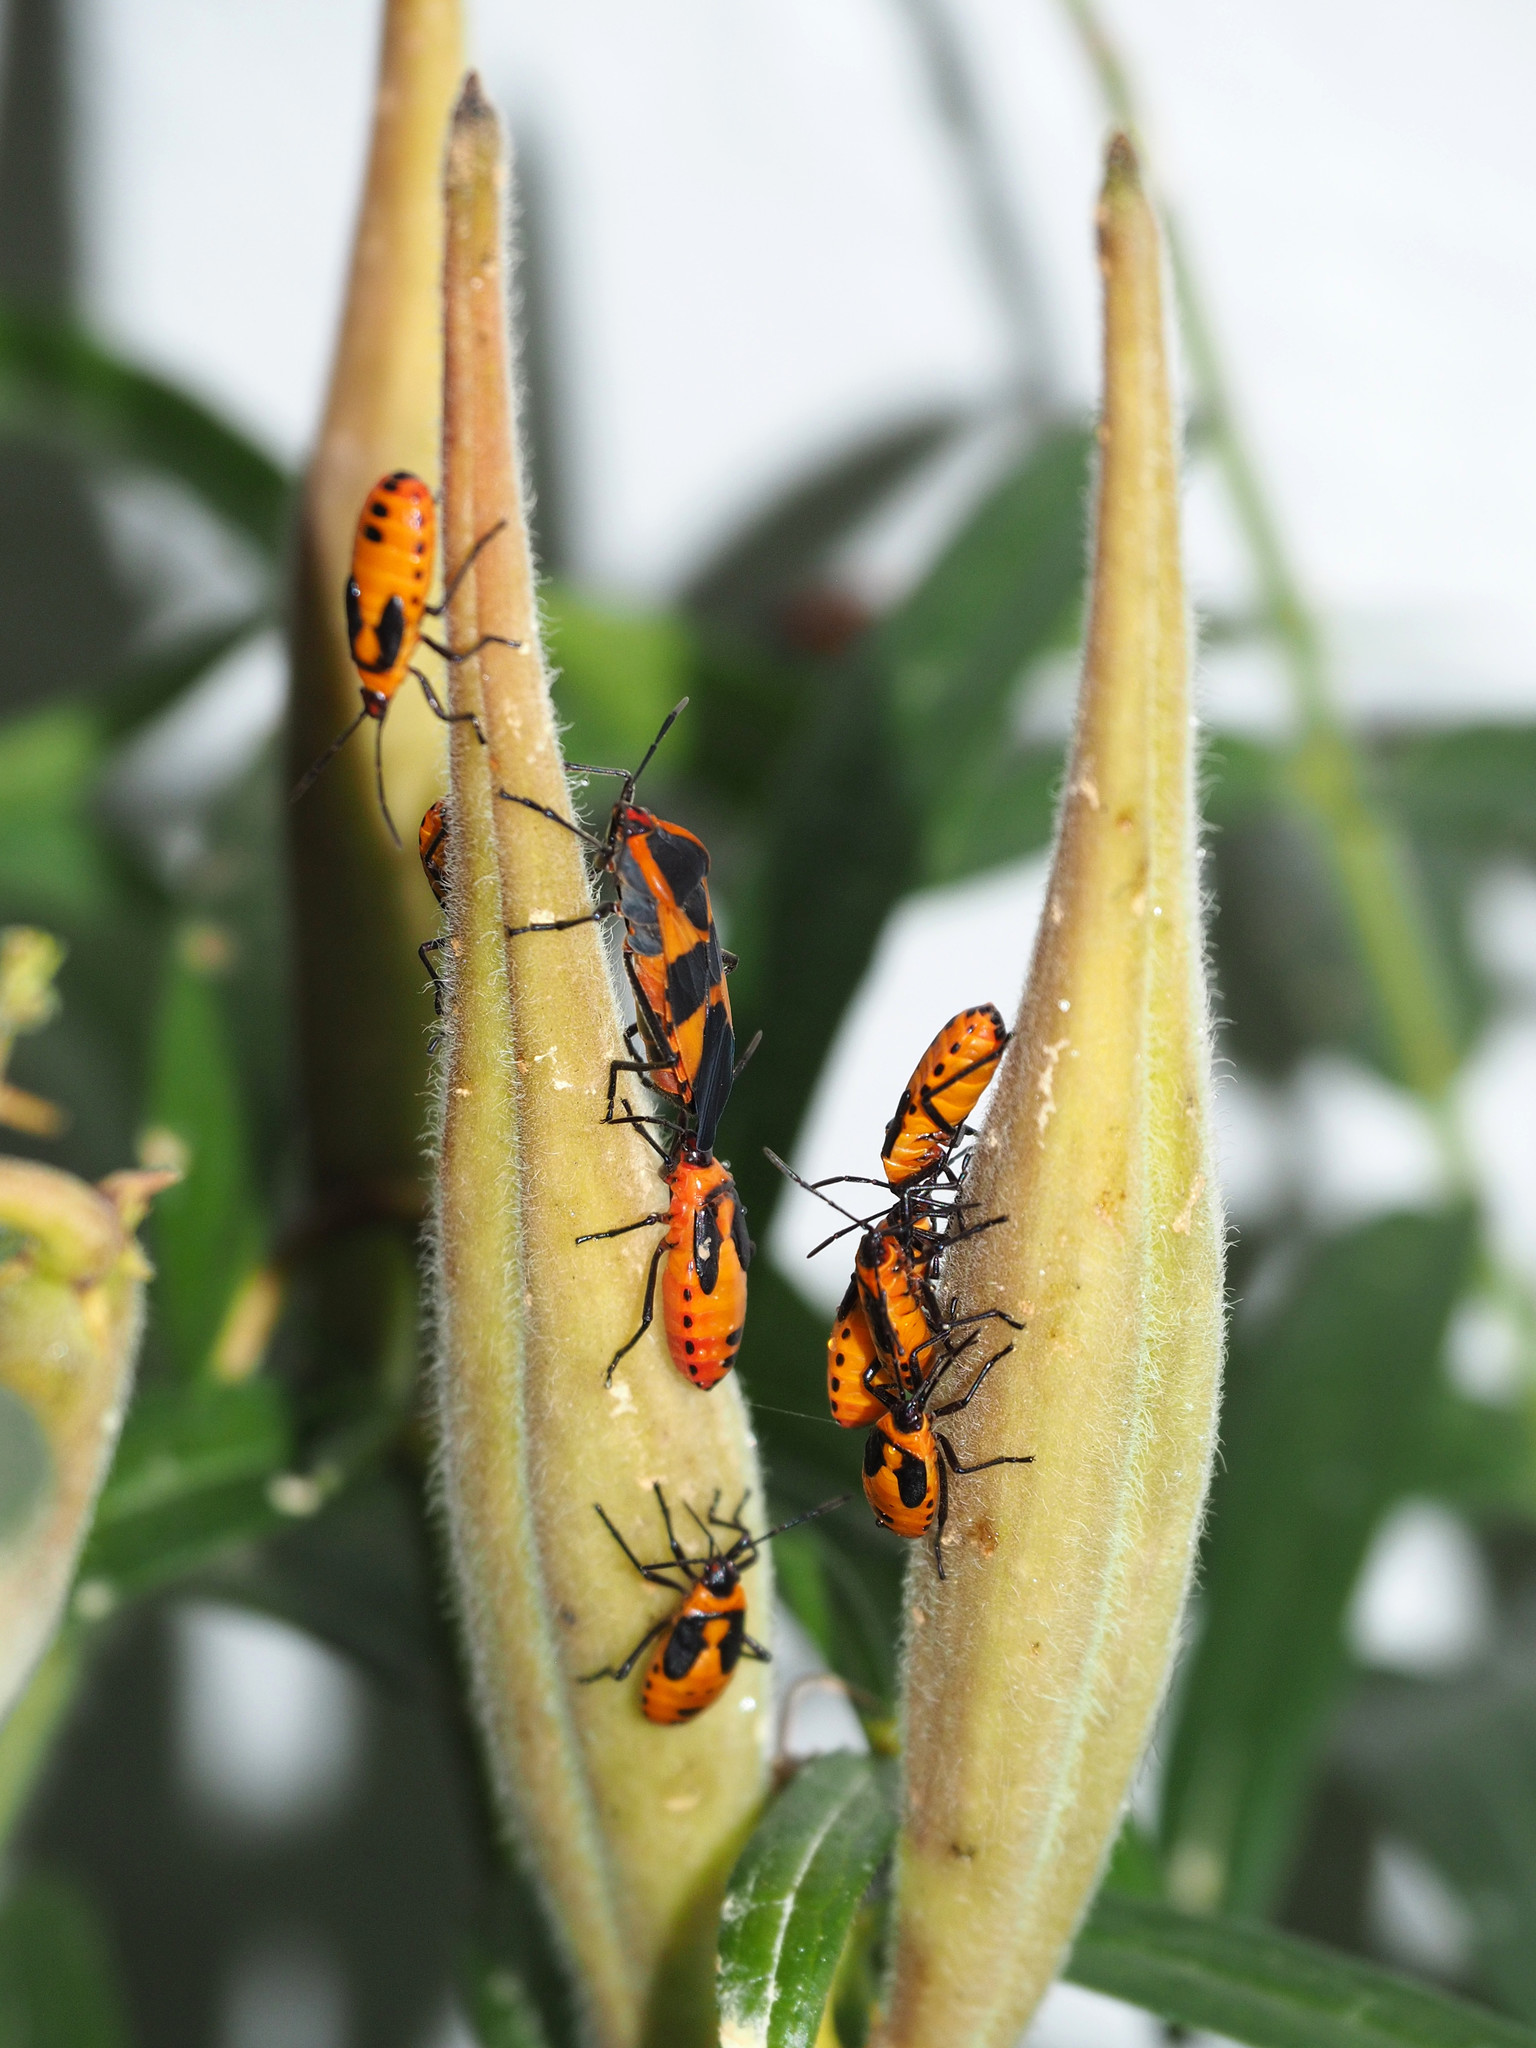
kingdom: Animalia
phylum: Arthropoda
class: Insecta
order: Hemiptera
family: Lygaeidae
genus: Oncopeltus
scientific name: Oncopeltus fasciatus
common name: Large milkweed bug
